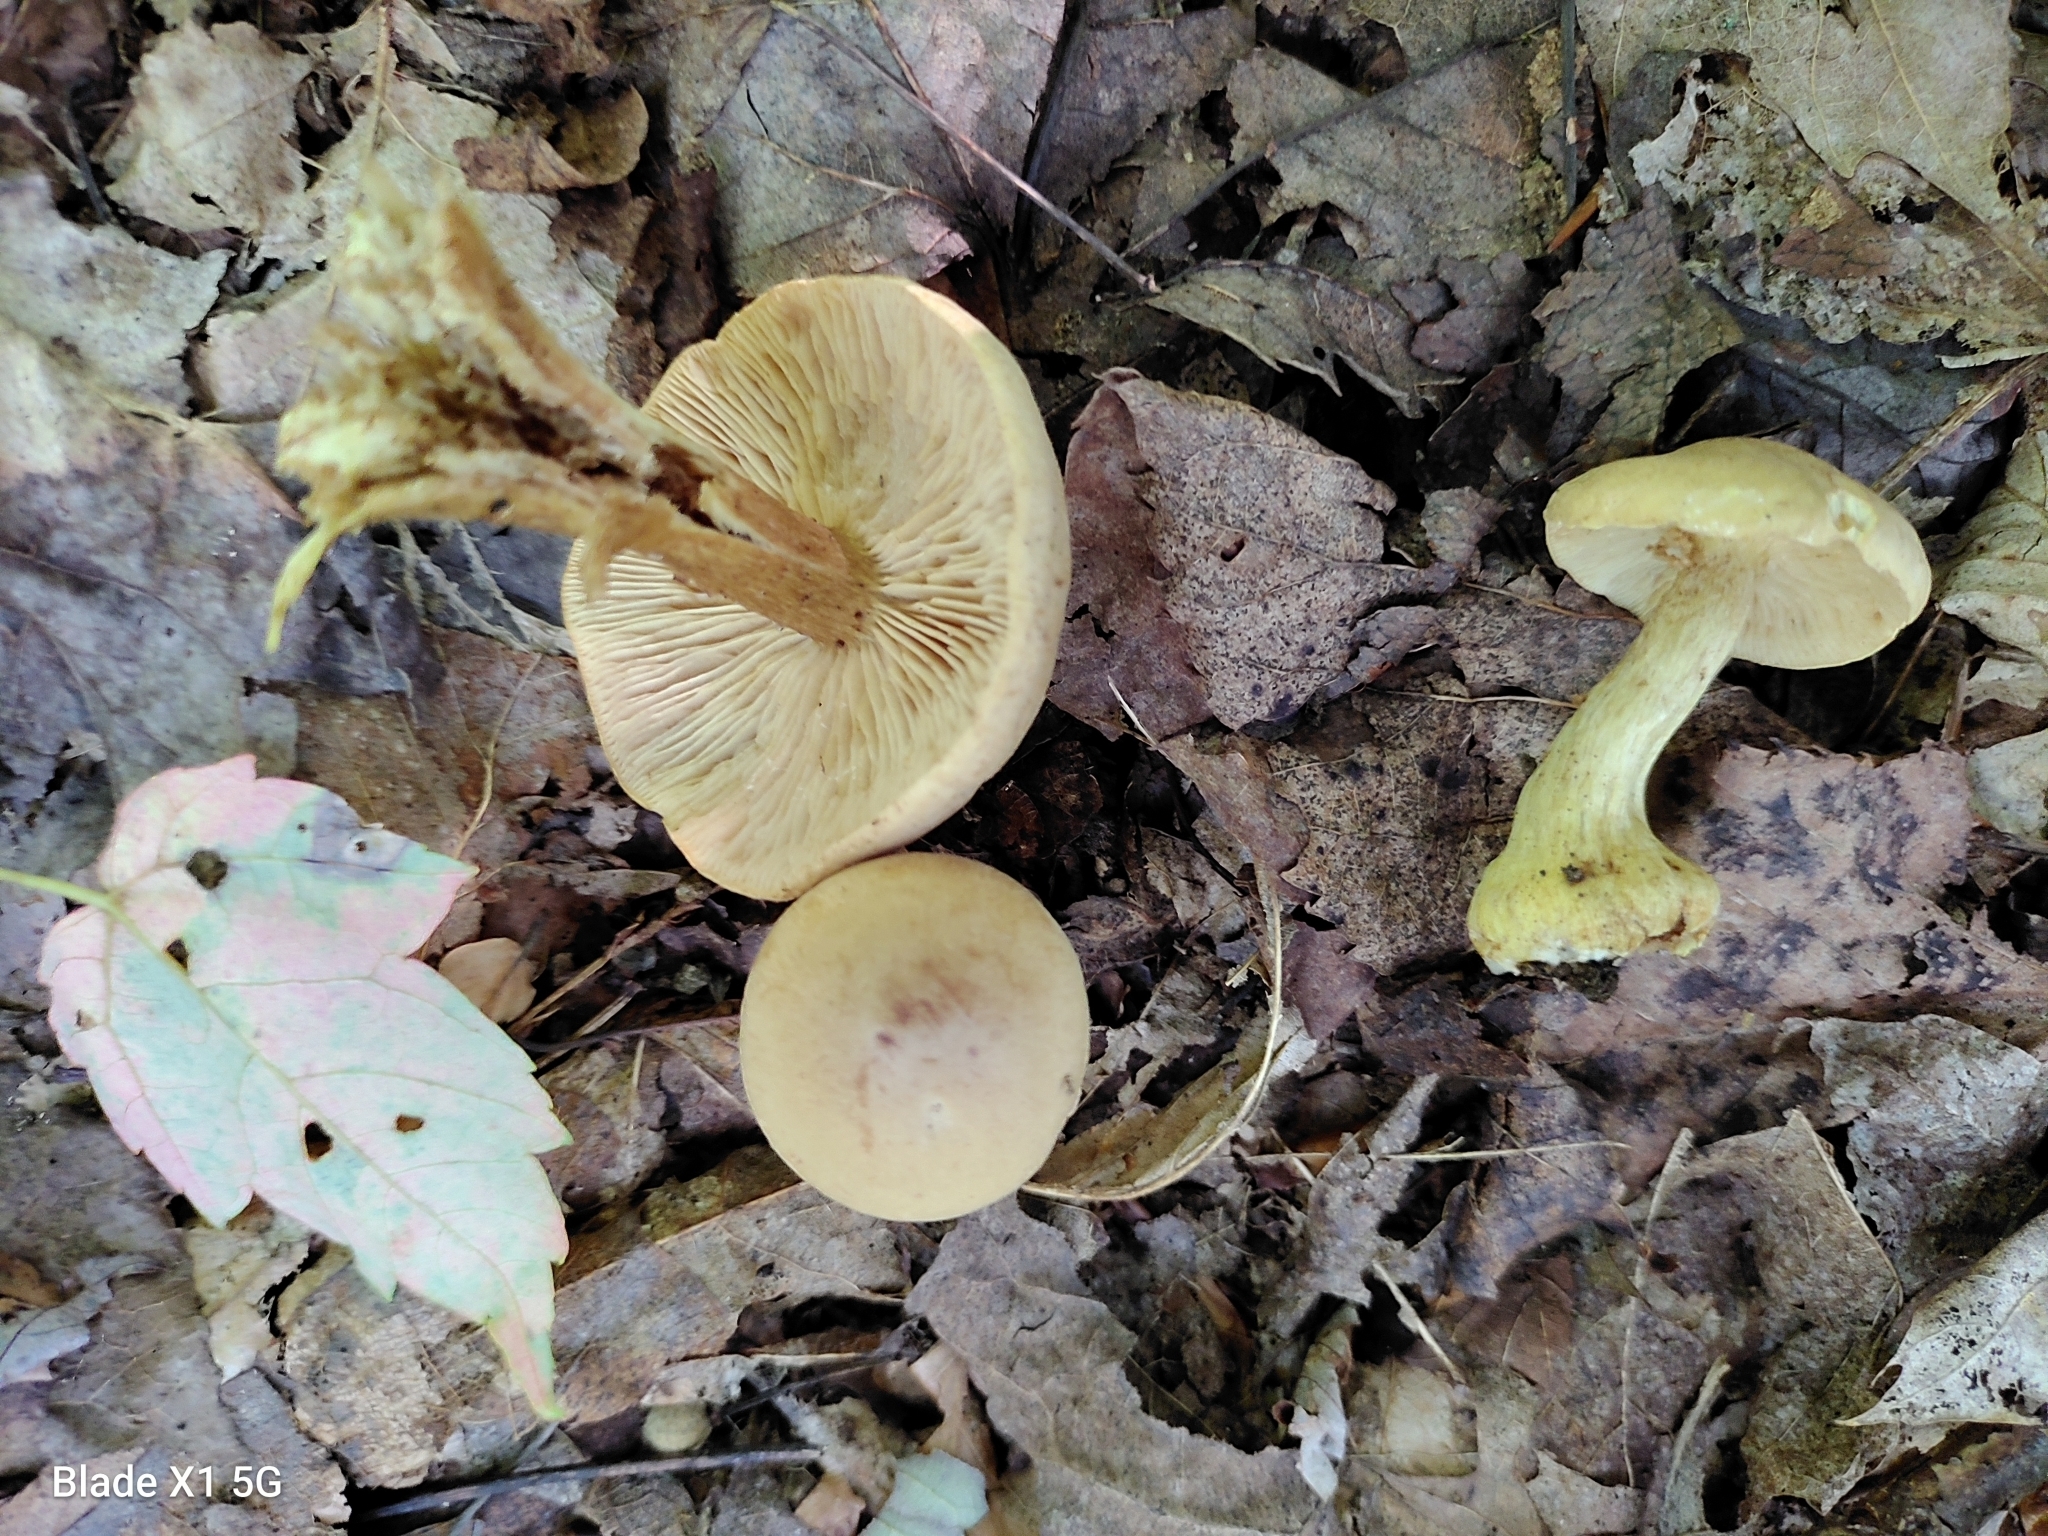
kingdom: Fungi
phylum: Basidiomycota
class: Agaricomycetes
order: Agaricales
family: Tricholomataceae
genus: Tricholoma
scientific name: Tricholoma sulphureum
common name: Stinky knight
